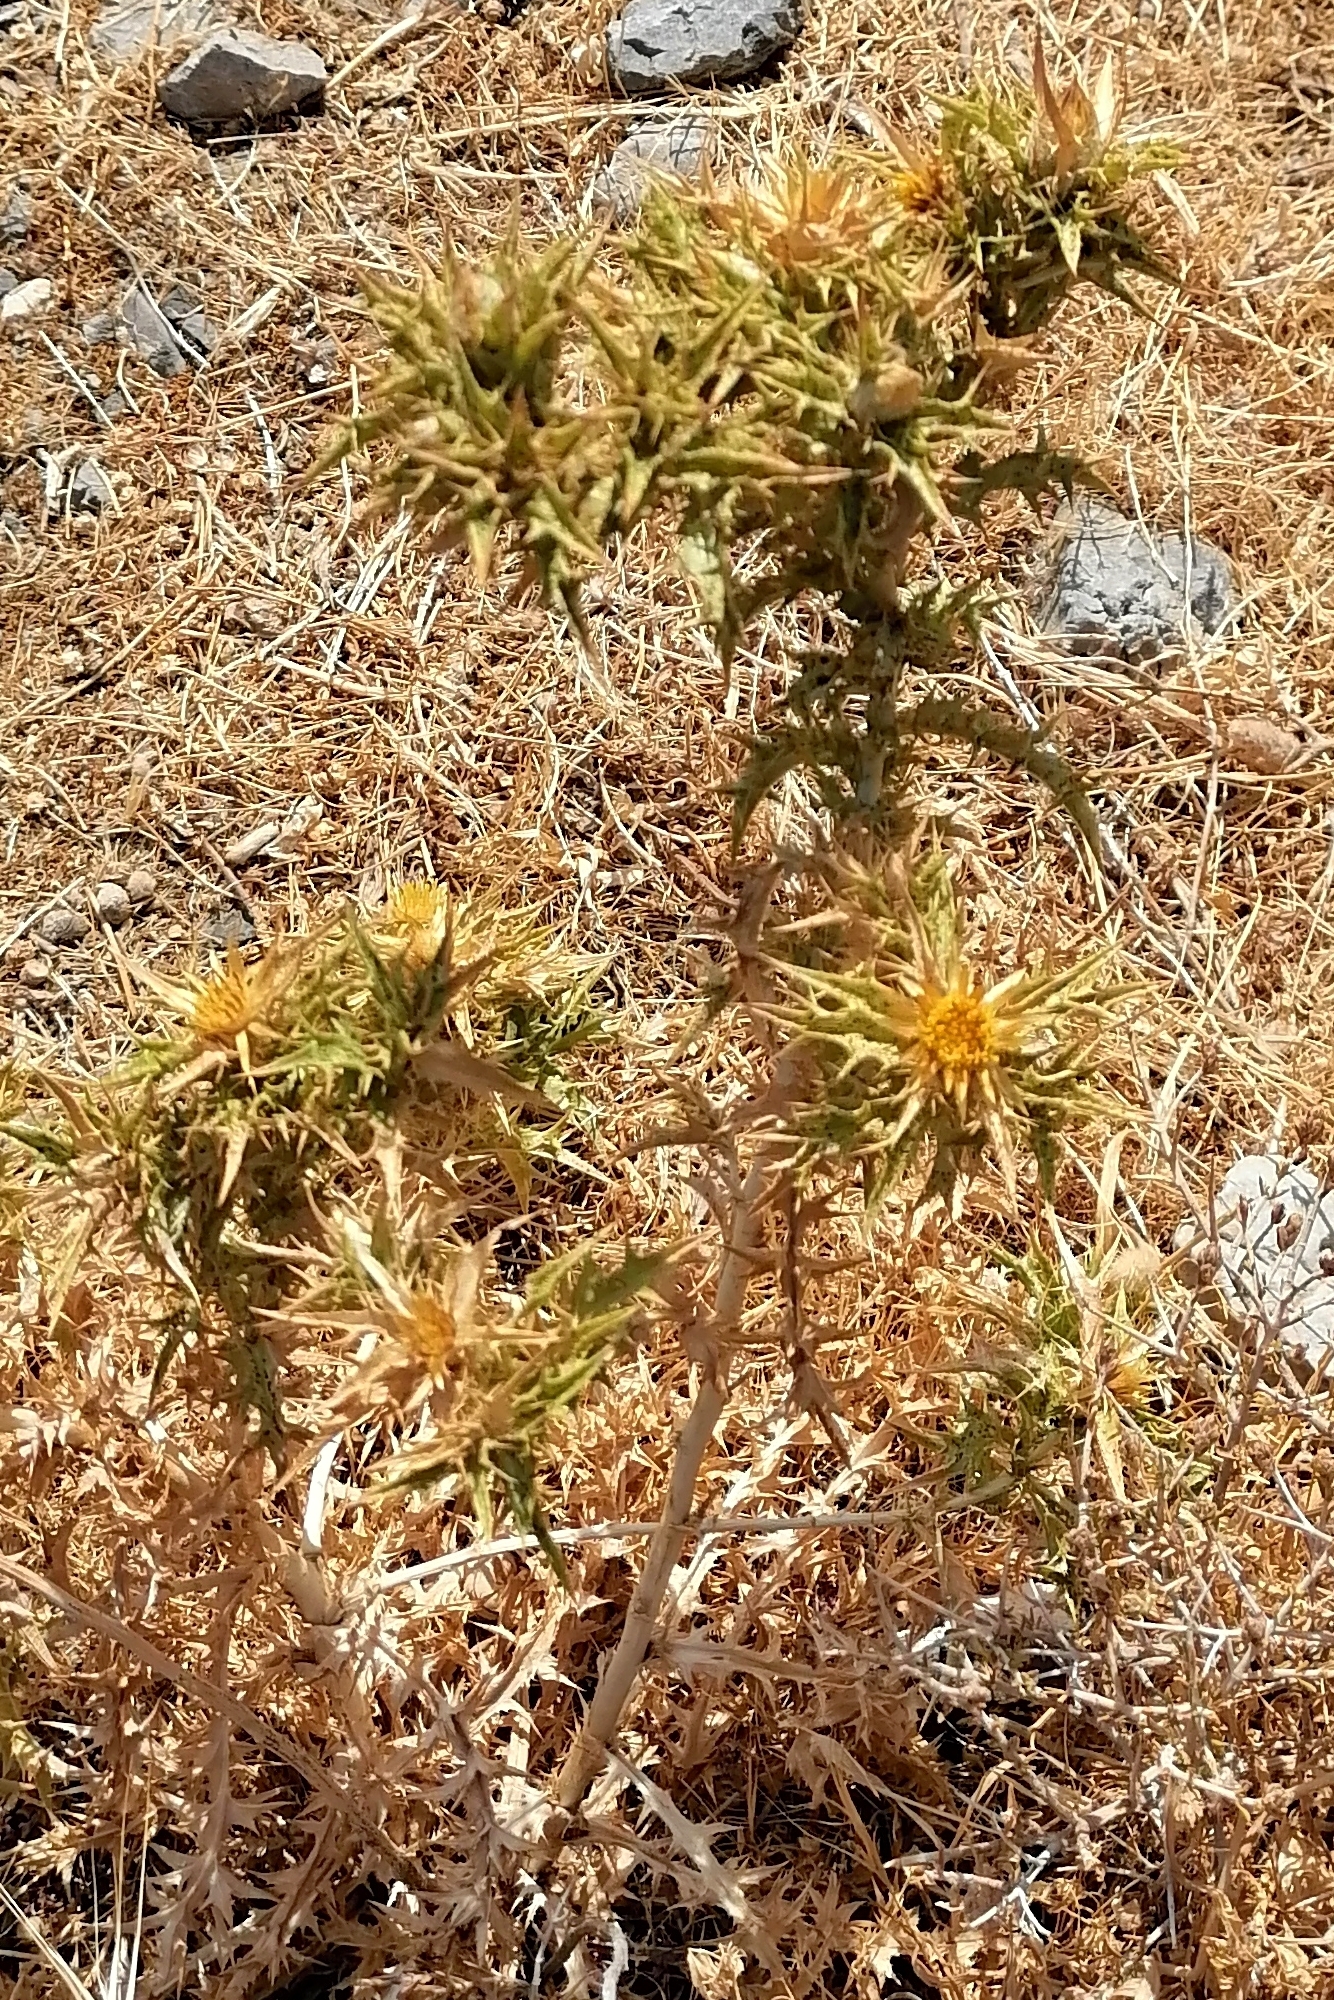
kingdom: Plantae
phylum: Tracheophyta
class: Magnoliopsida
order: Asterales
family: Asteraceae
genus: Carlina
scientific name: Carlina graeca
